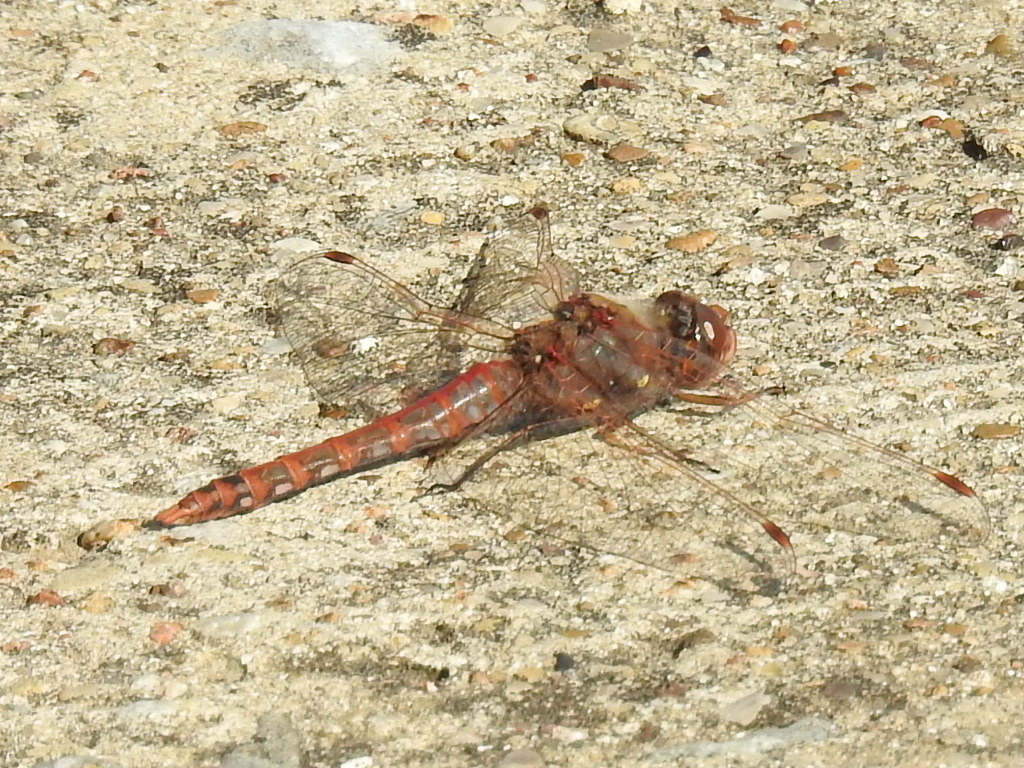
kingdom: Animalia
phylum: Arthropoda
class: Insecta
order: Odonata
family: Libellulidae
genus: Sympetrum
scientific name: Sympetrum corruptum
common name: Variegated meadowhawk
